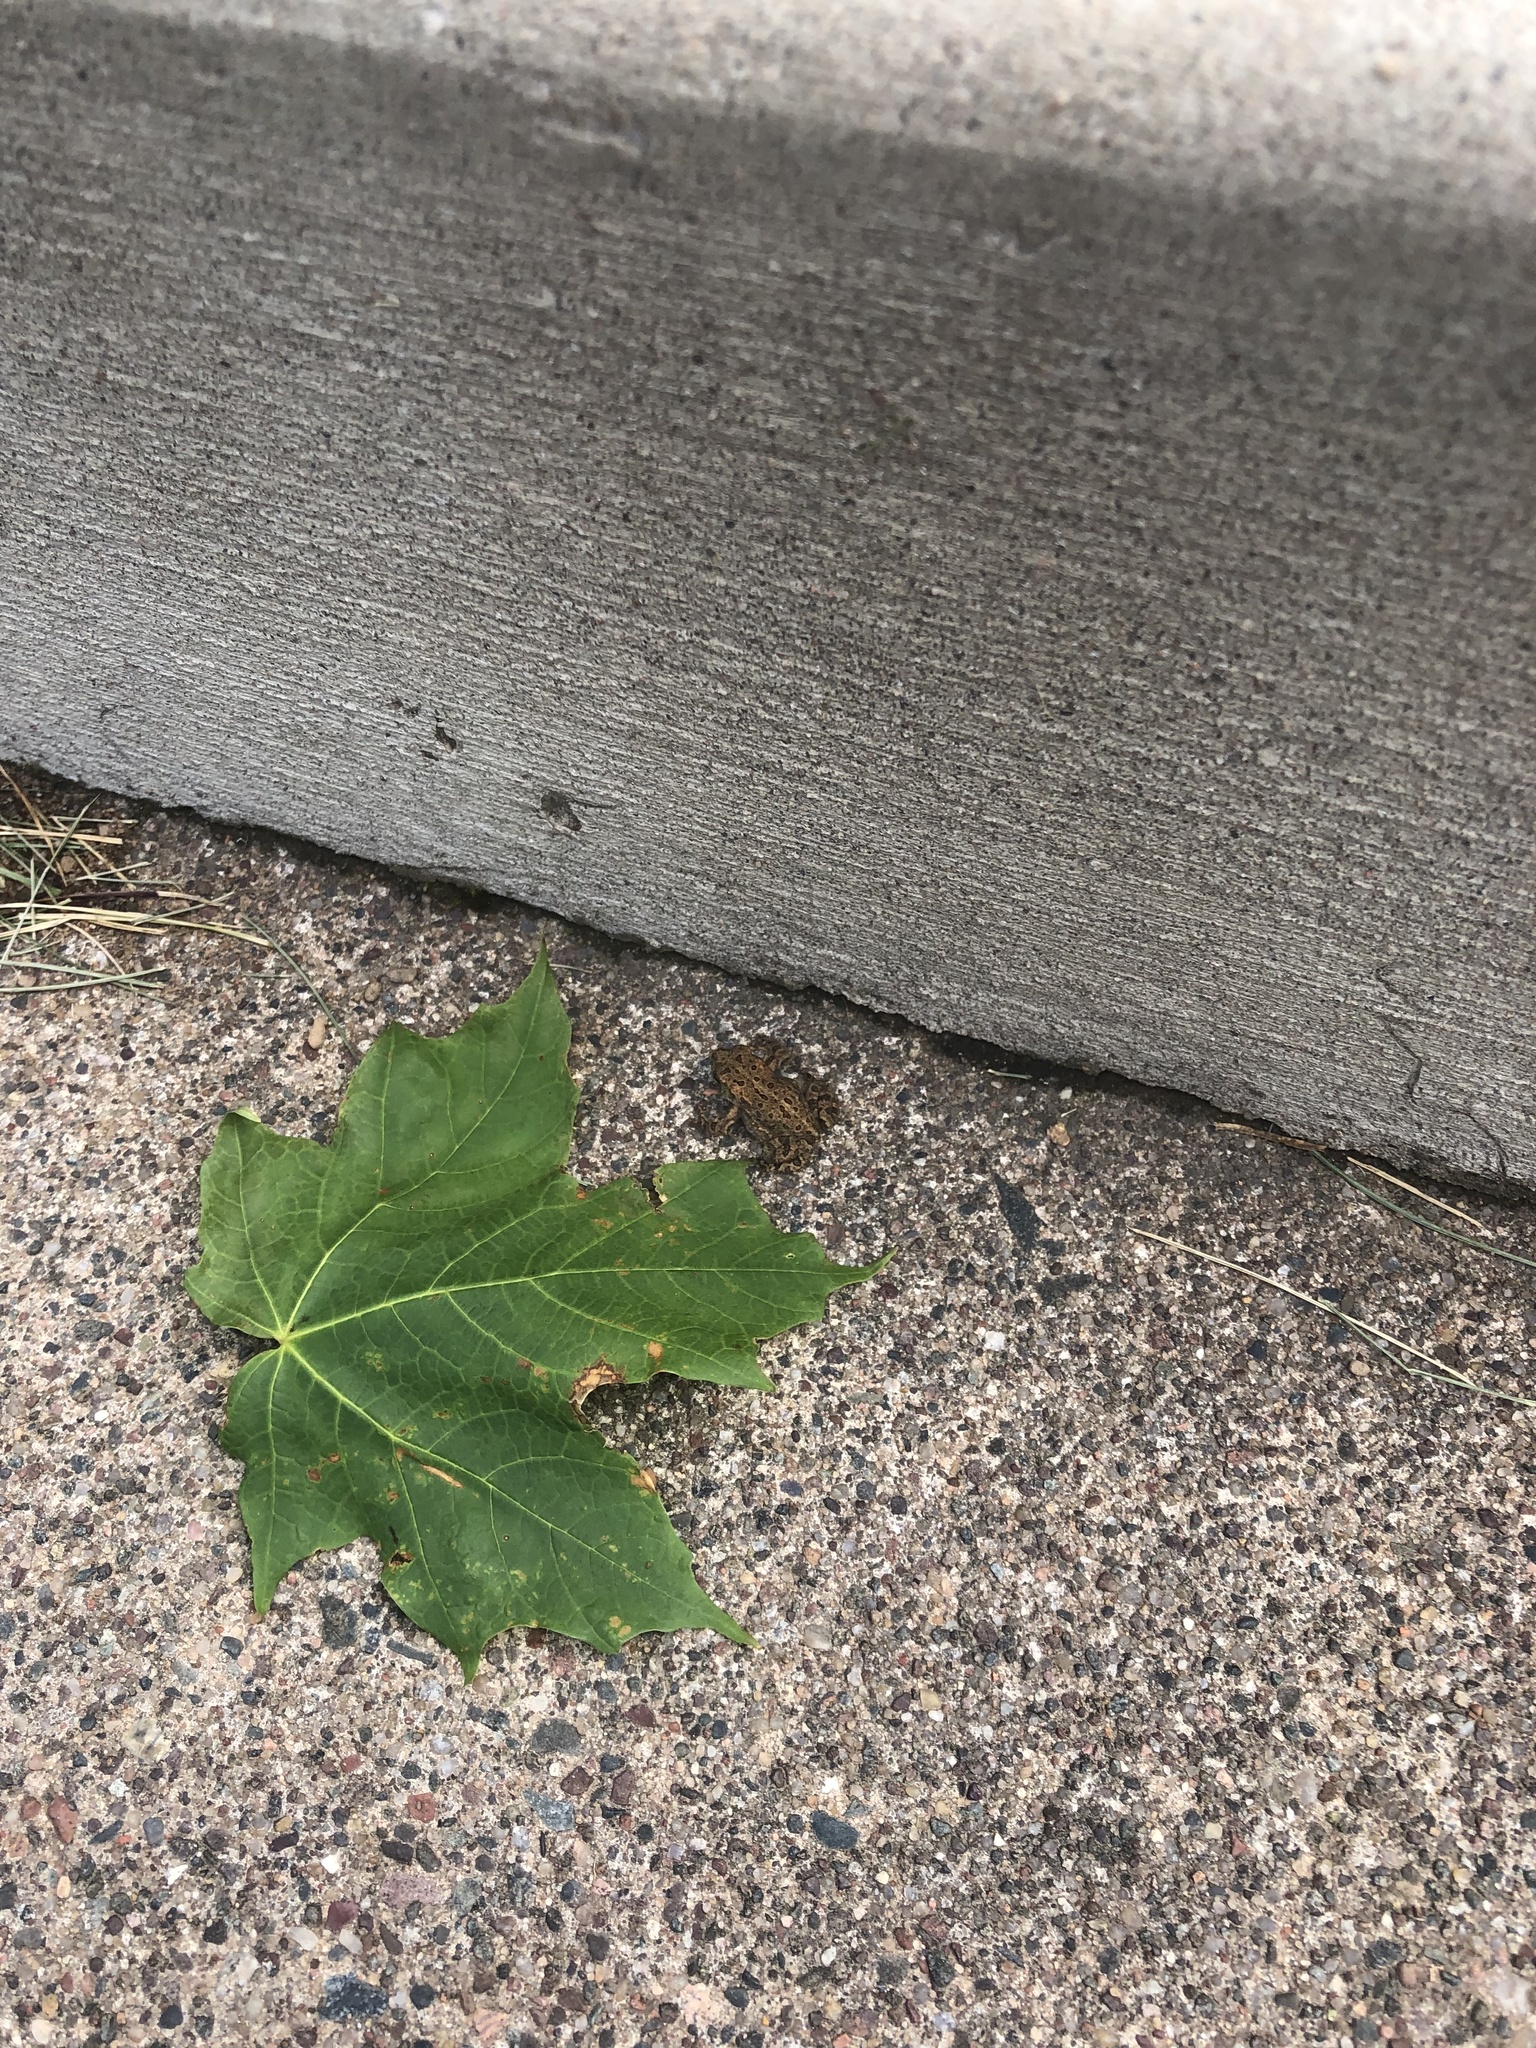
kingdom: Animalia
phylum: Chordata
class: Amphibia
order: Anura
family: Bufonidae
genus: Anaxyrus
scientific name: Anaxyrus americanus
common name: American toad
